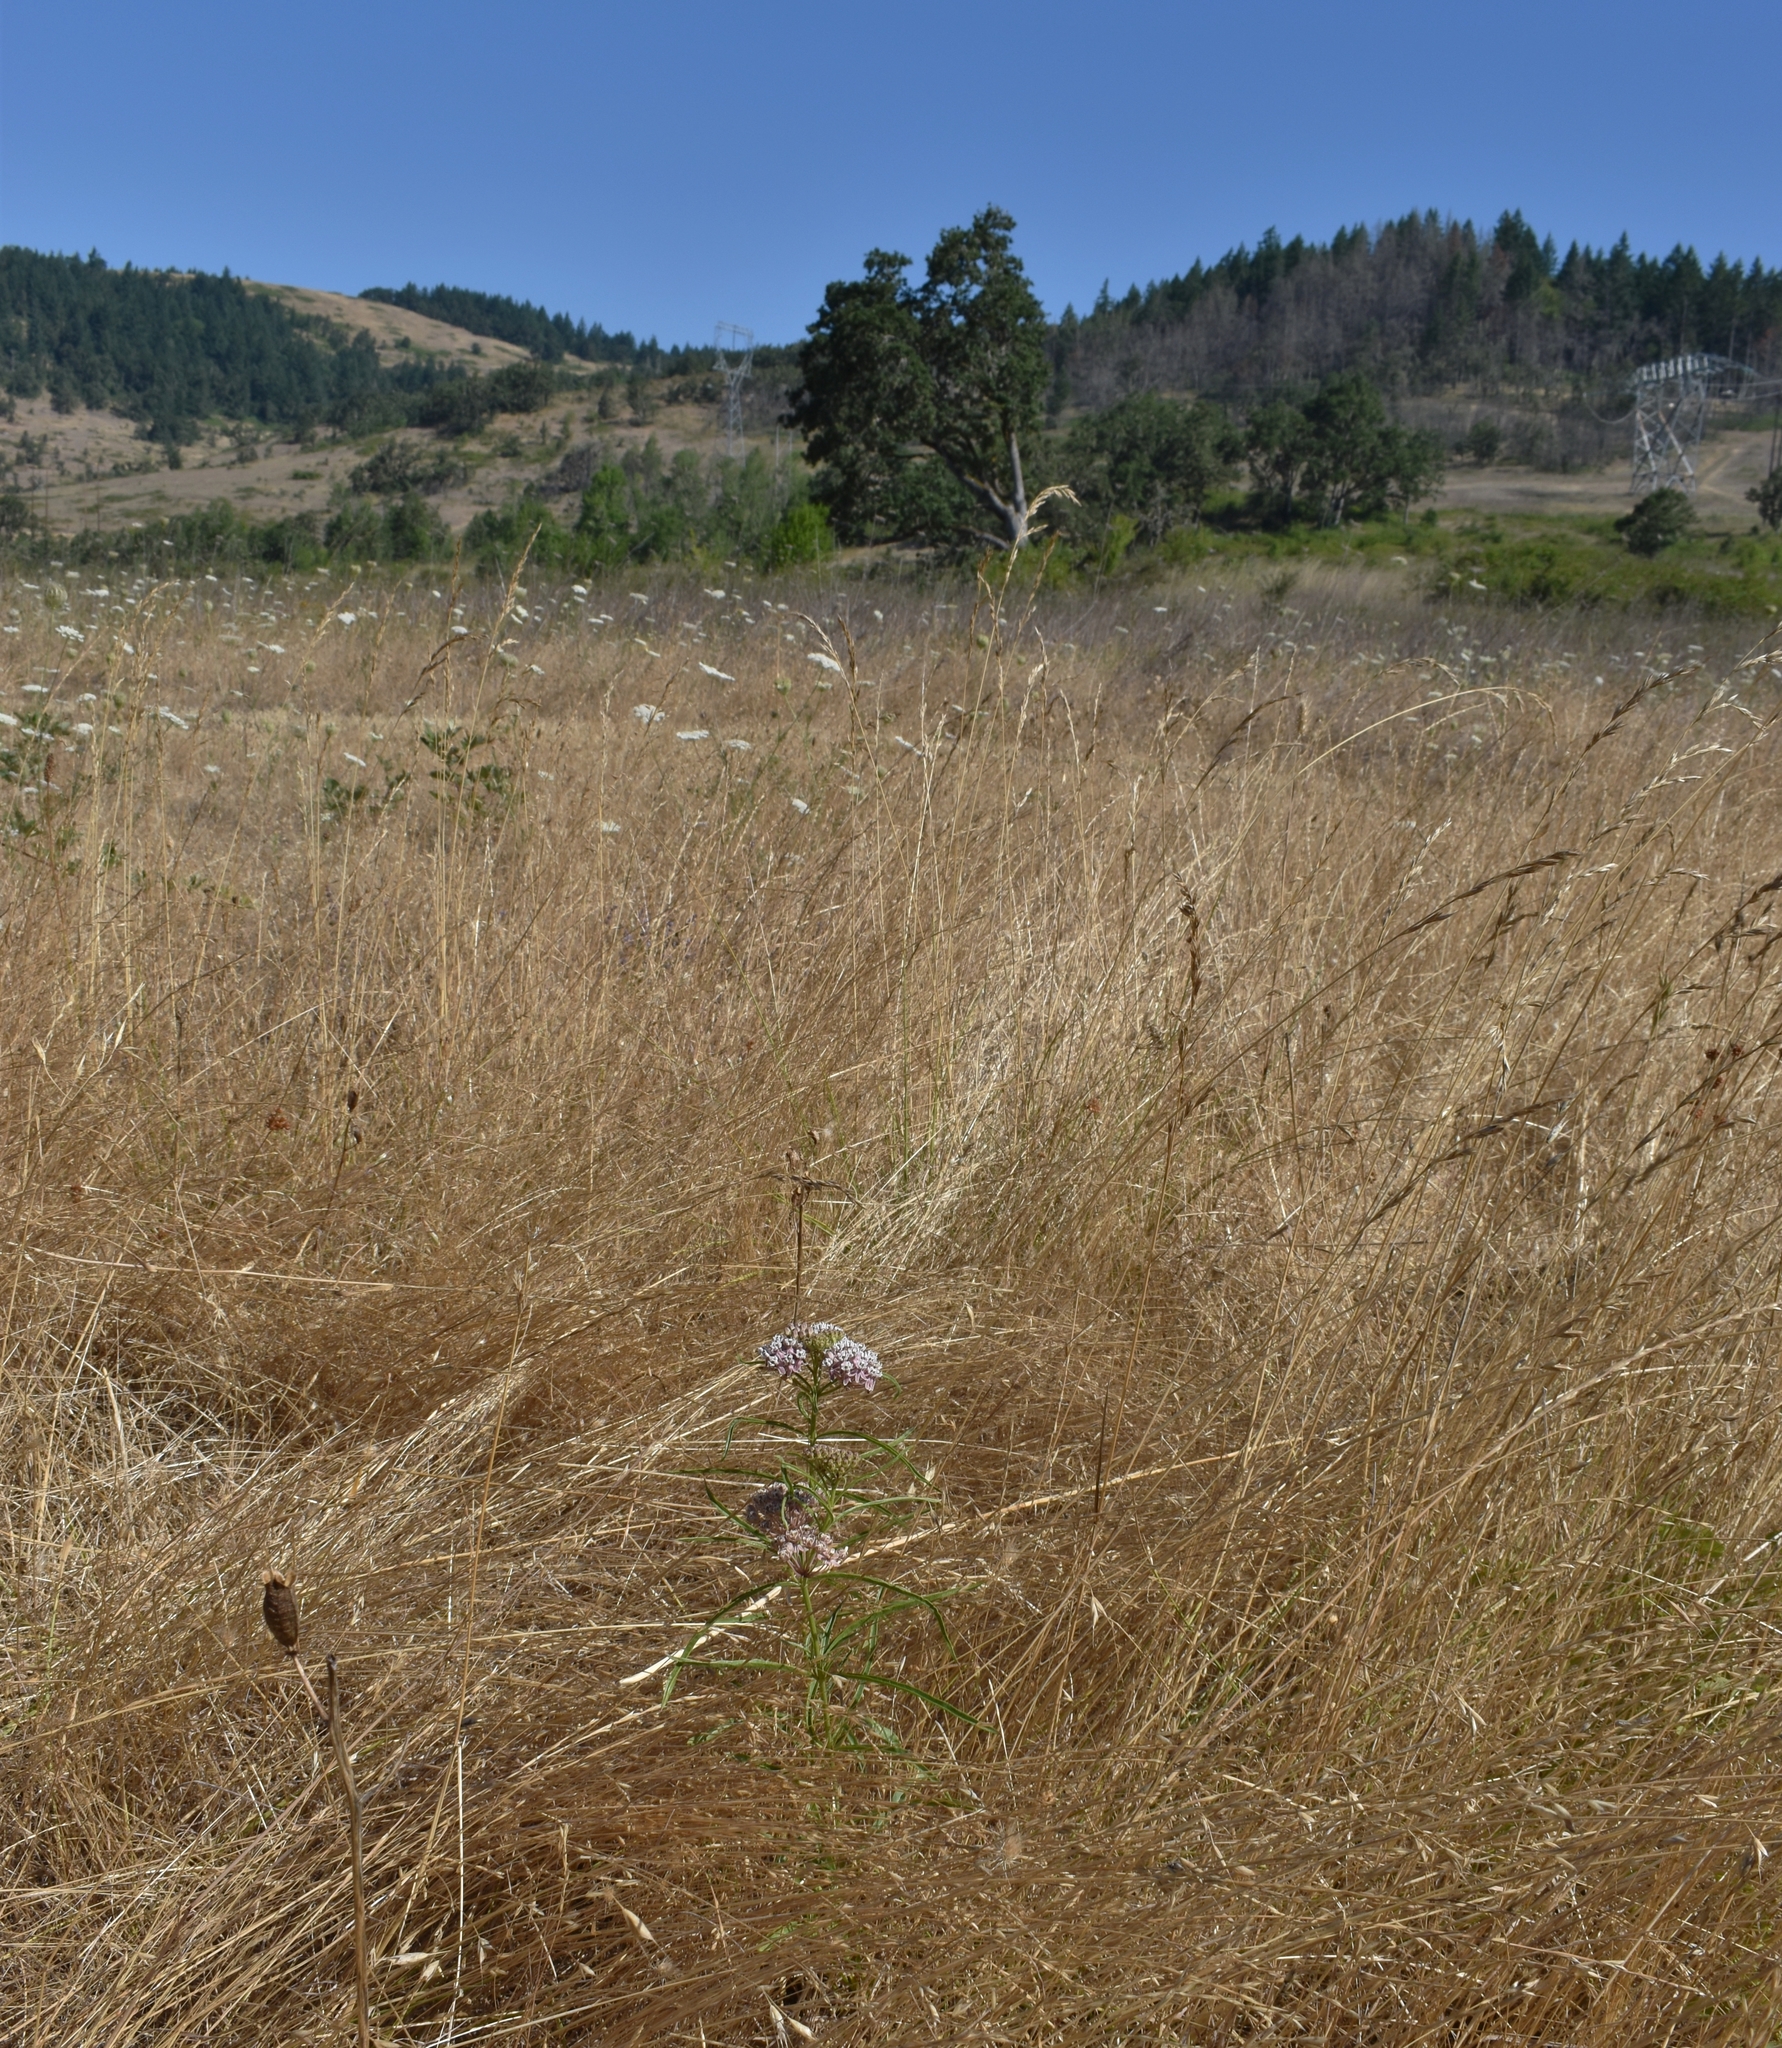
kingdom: Plantae
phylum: Tracheophyta
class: Magnoliopsida
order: Gentianales
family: Apocynaceae
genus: Asclepias
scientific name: Asclepias fascicularis
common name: Mexican milkweed
